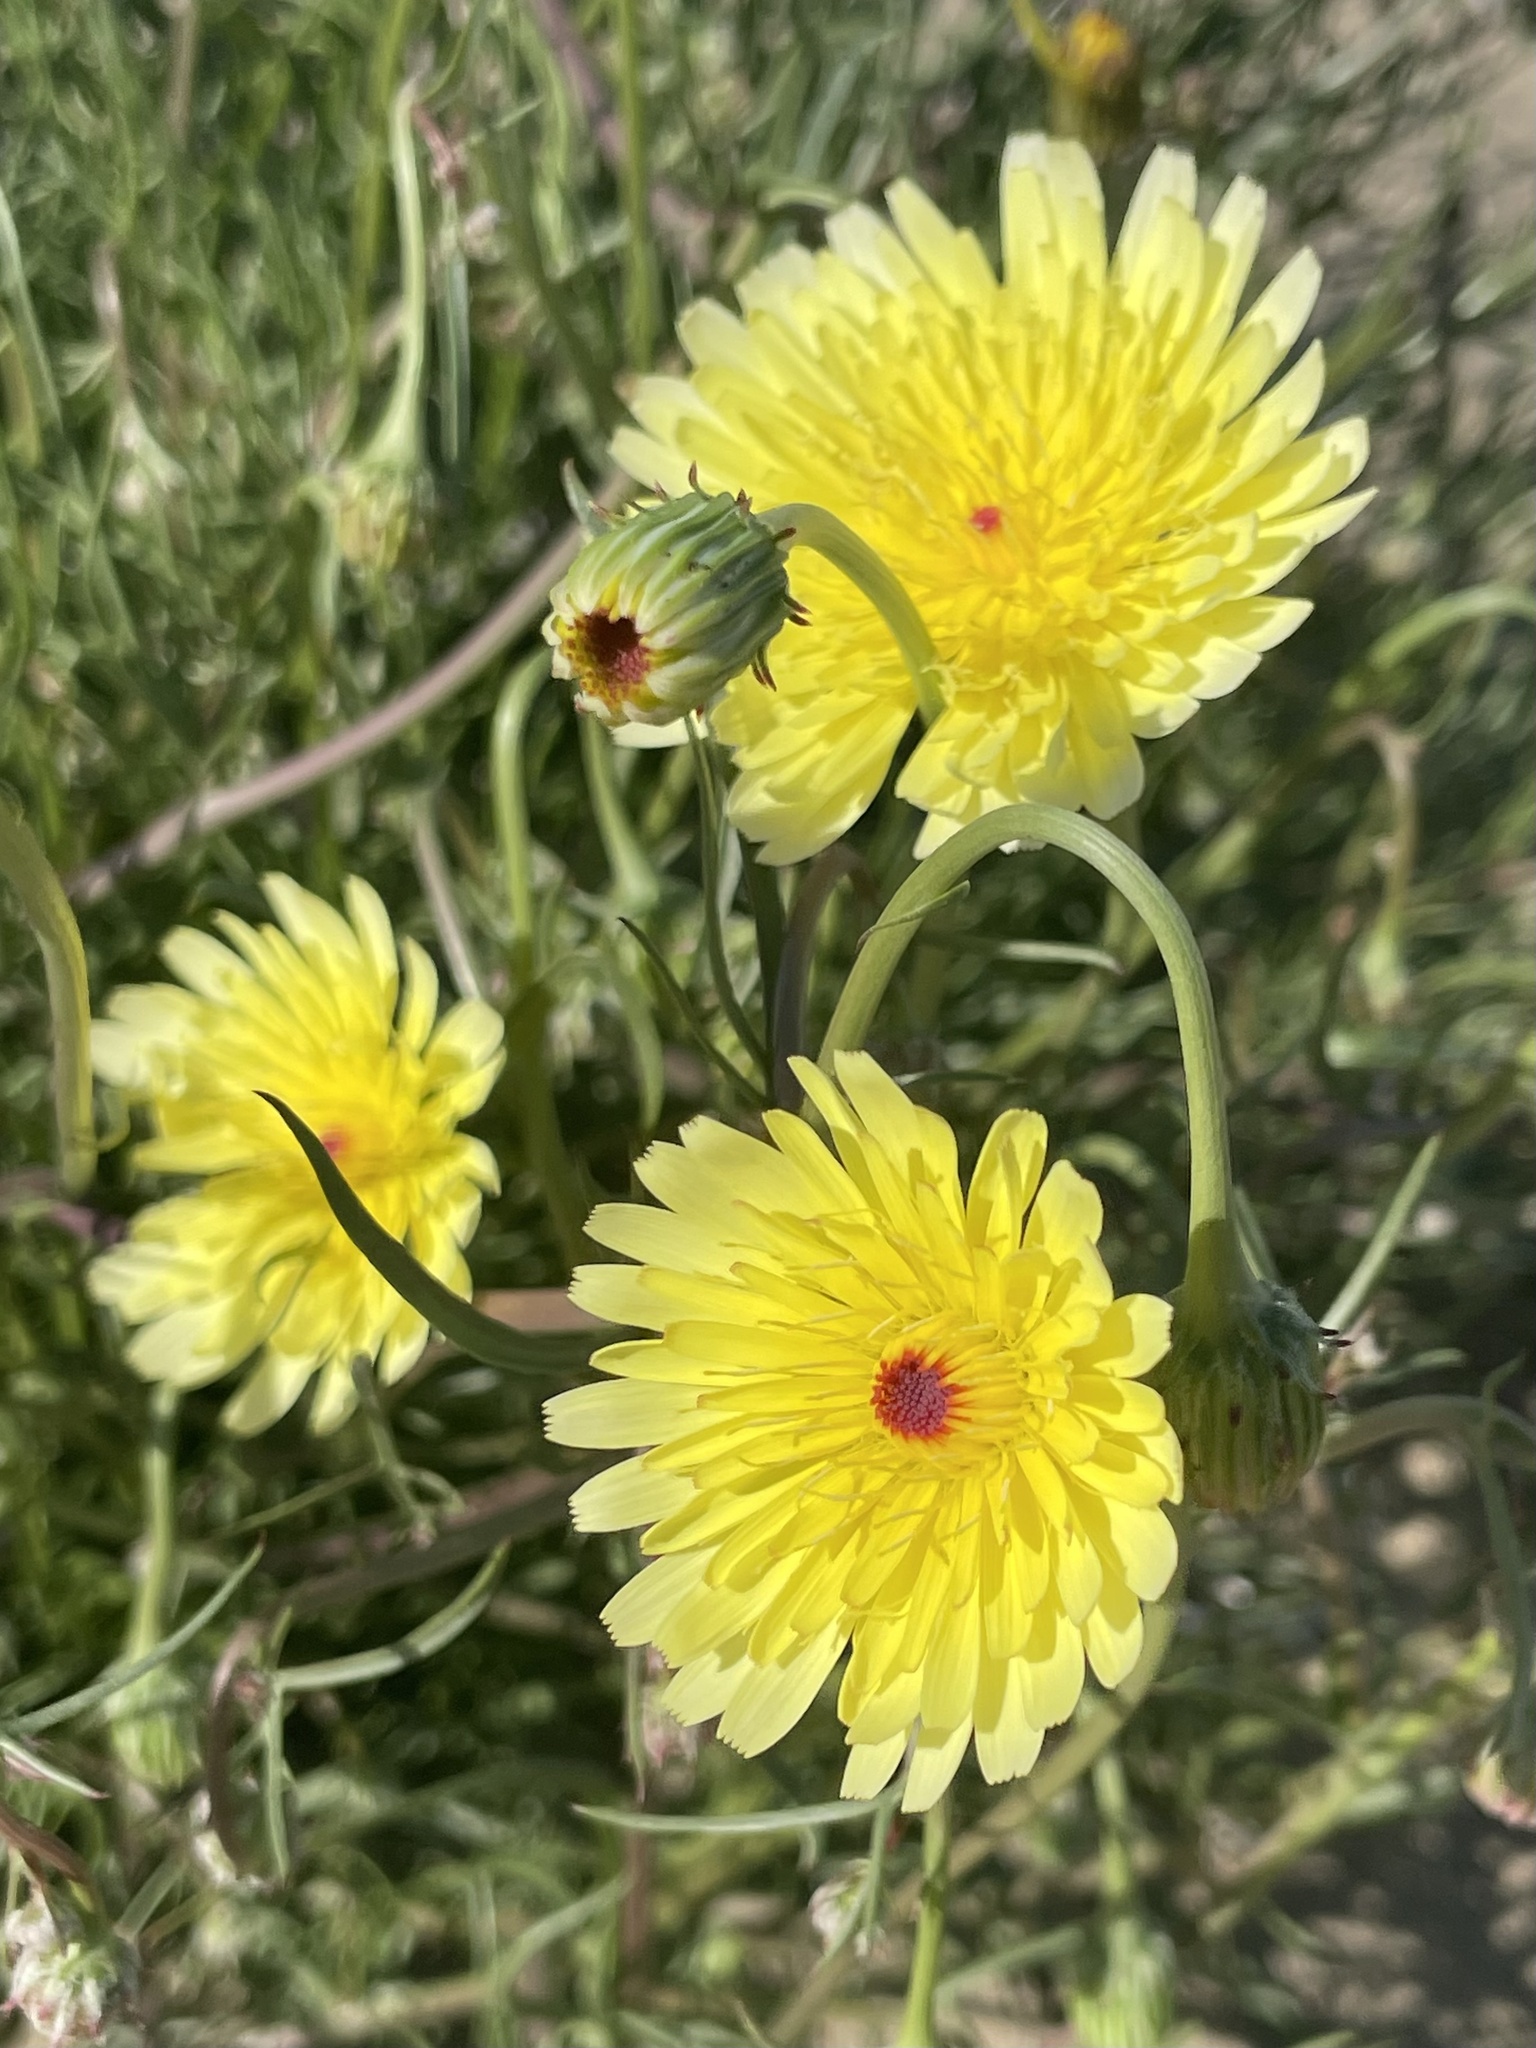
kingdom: Plantae
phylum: Tracheophyta
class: Magnoliopsida
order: Asterales
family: Asteraceae
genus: Malacothrix
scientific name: Malacothrix glabrata
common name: Smooth desert-dandelion
